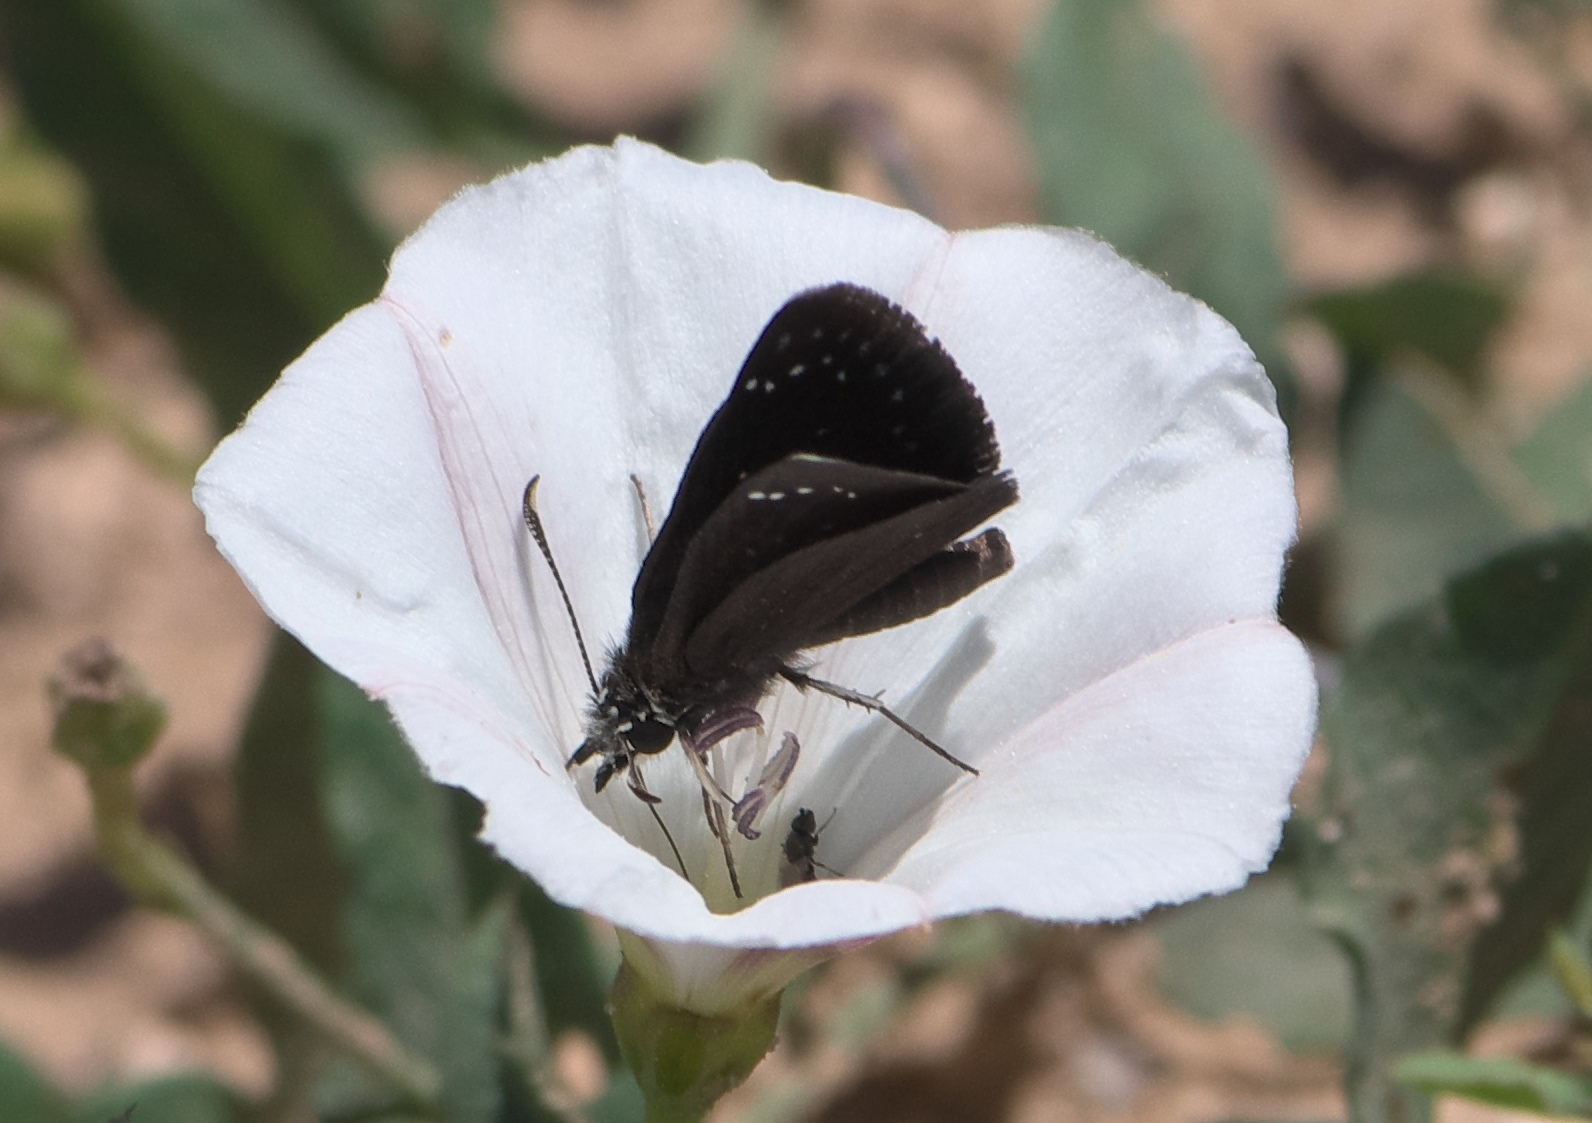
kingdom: Animalia
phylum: Arthropoda
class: Insecta
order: Lepidoptera
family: Hesperiidae
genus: Pholisora
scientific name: Pholisora catullus
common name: Common sootywing
